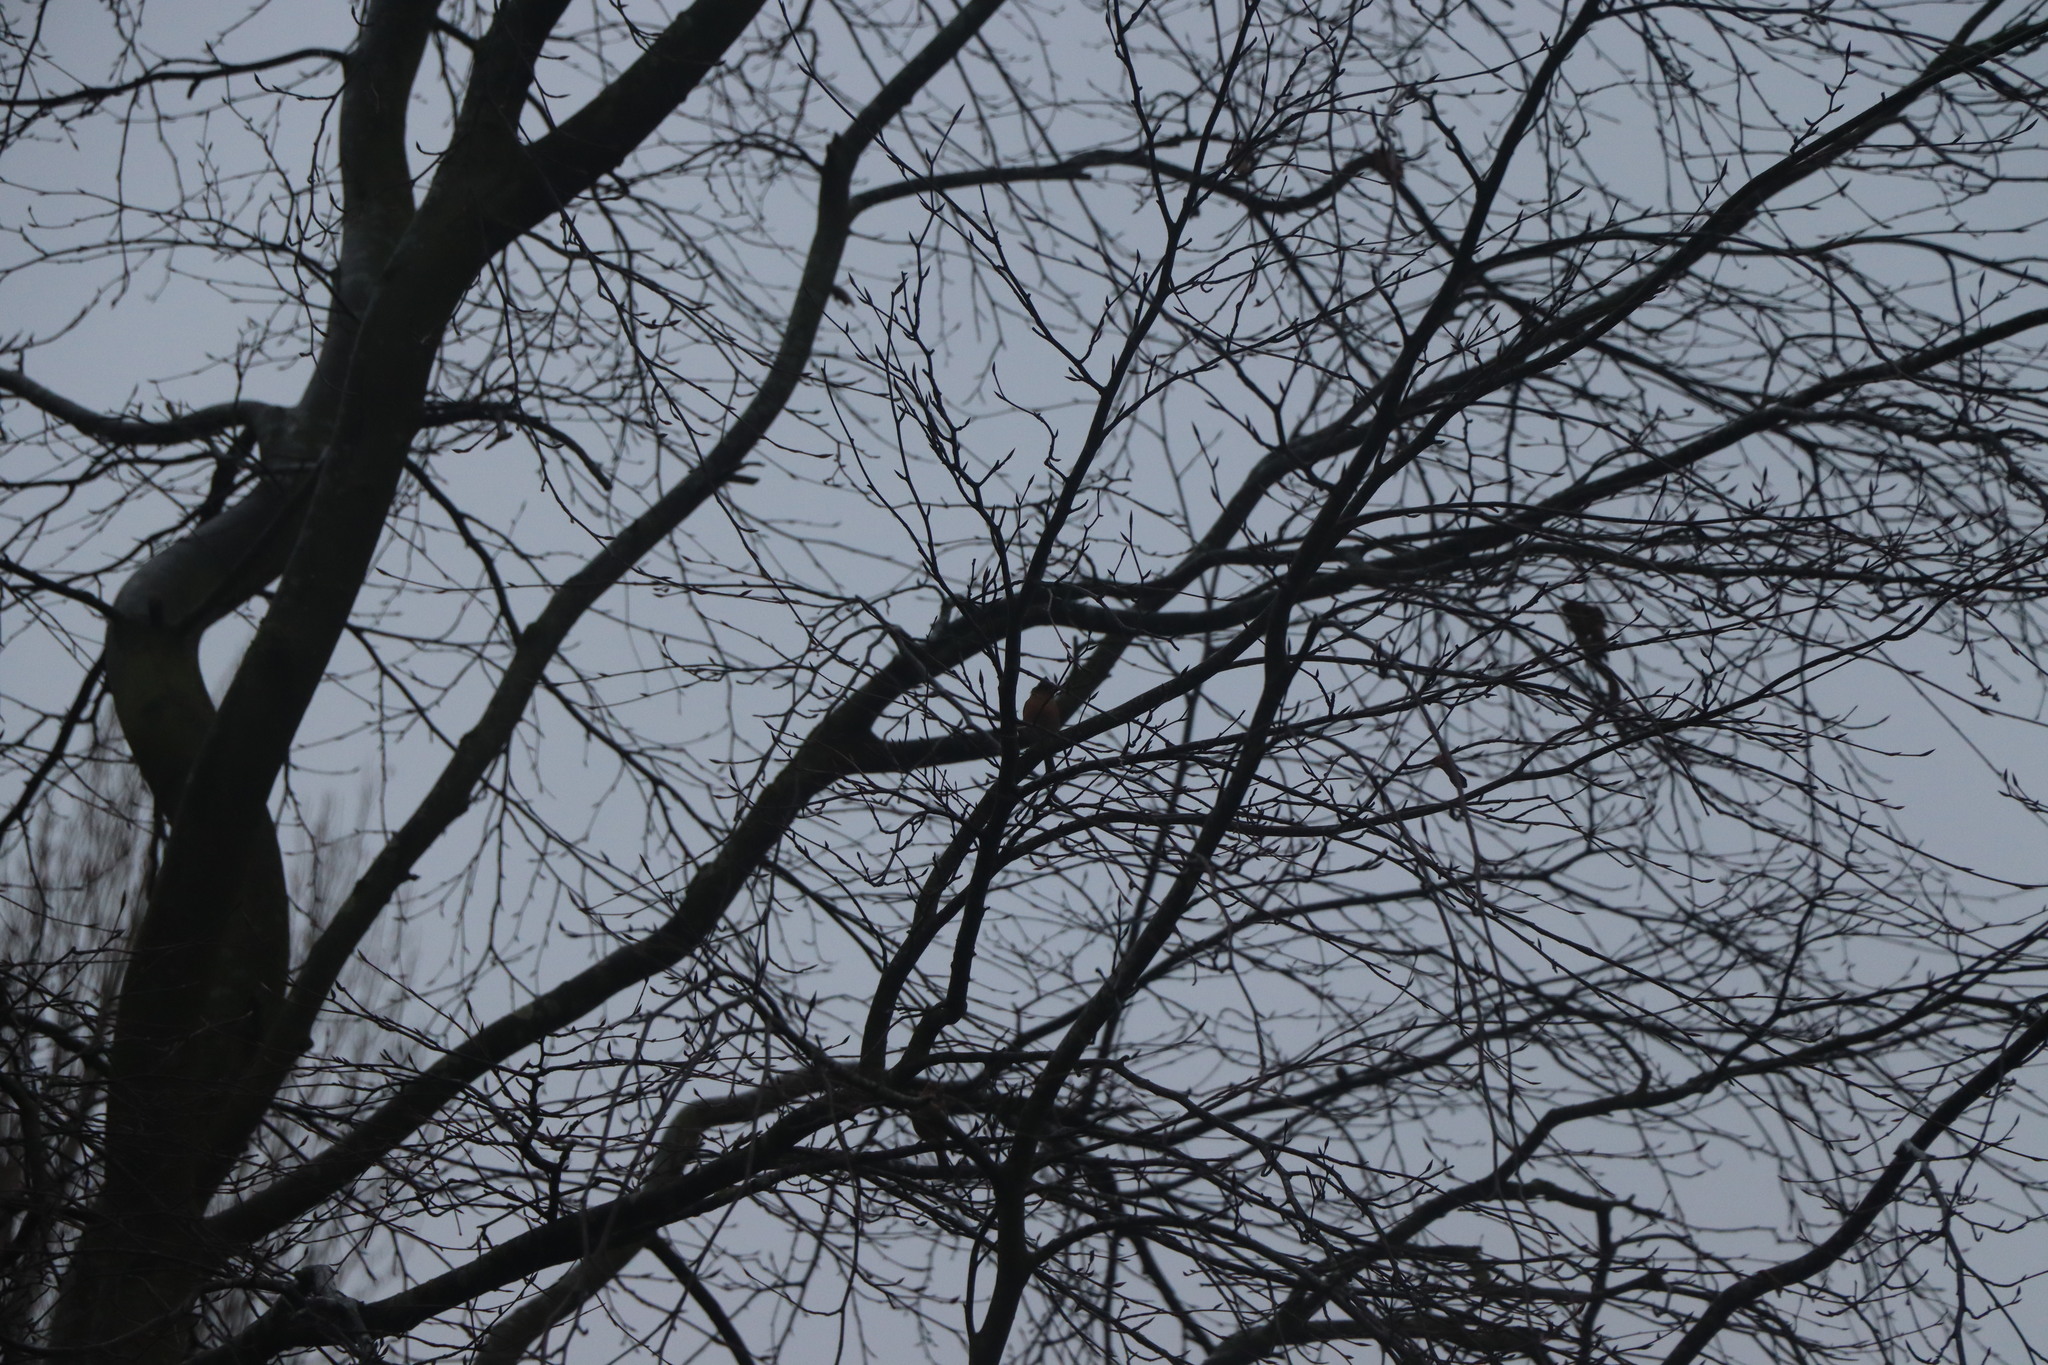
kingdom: Animalia
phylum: Chordata
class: Aves
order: Passeriformes
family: Fringillidae
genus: Fringilla
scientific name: Fringilla coelebs
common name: Common chaffinch
